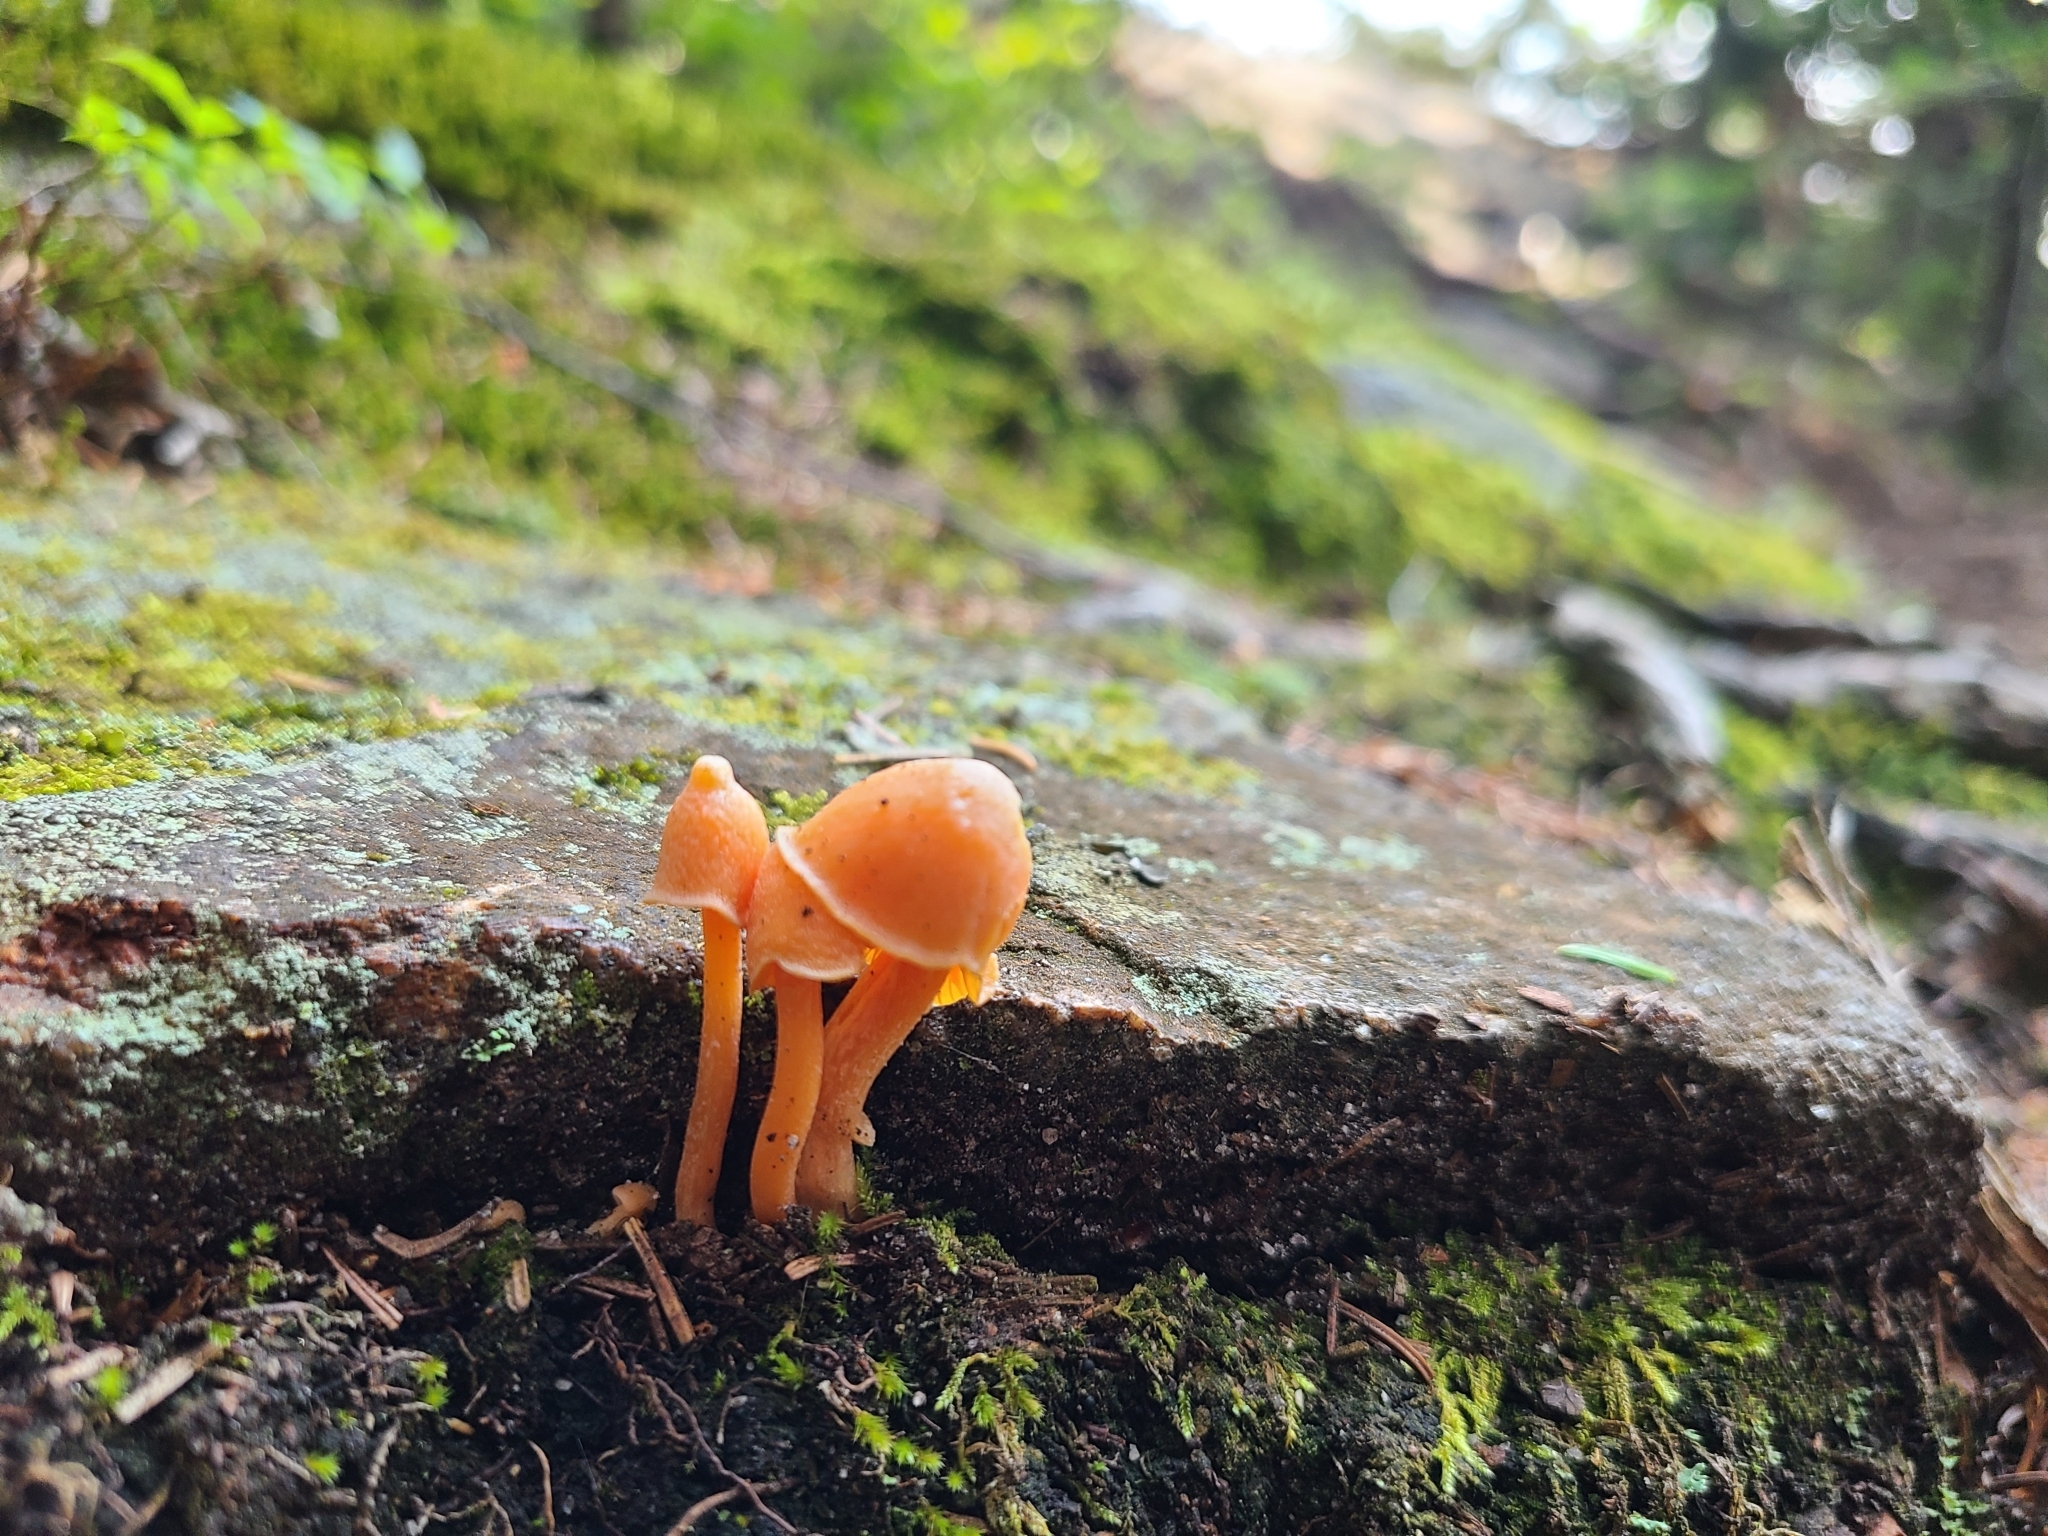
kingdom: Fungi
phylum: Basidiomycota
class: Agaricomycetes
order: Agaricales
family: Entolomataceae
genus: Entoloma
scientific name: Entoloma quadratum
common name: Salmon pinkgill
